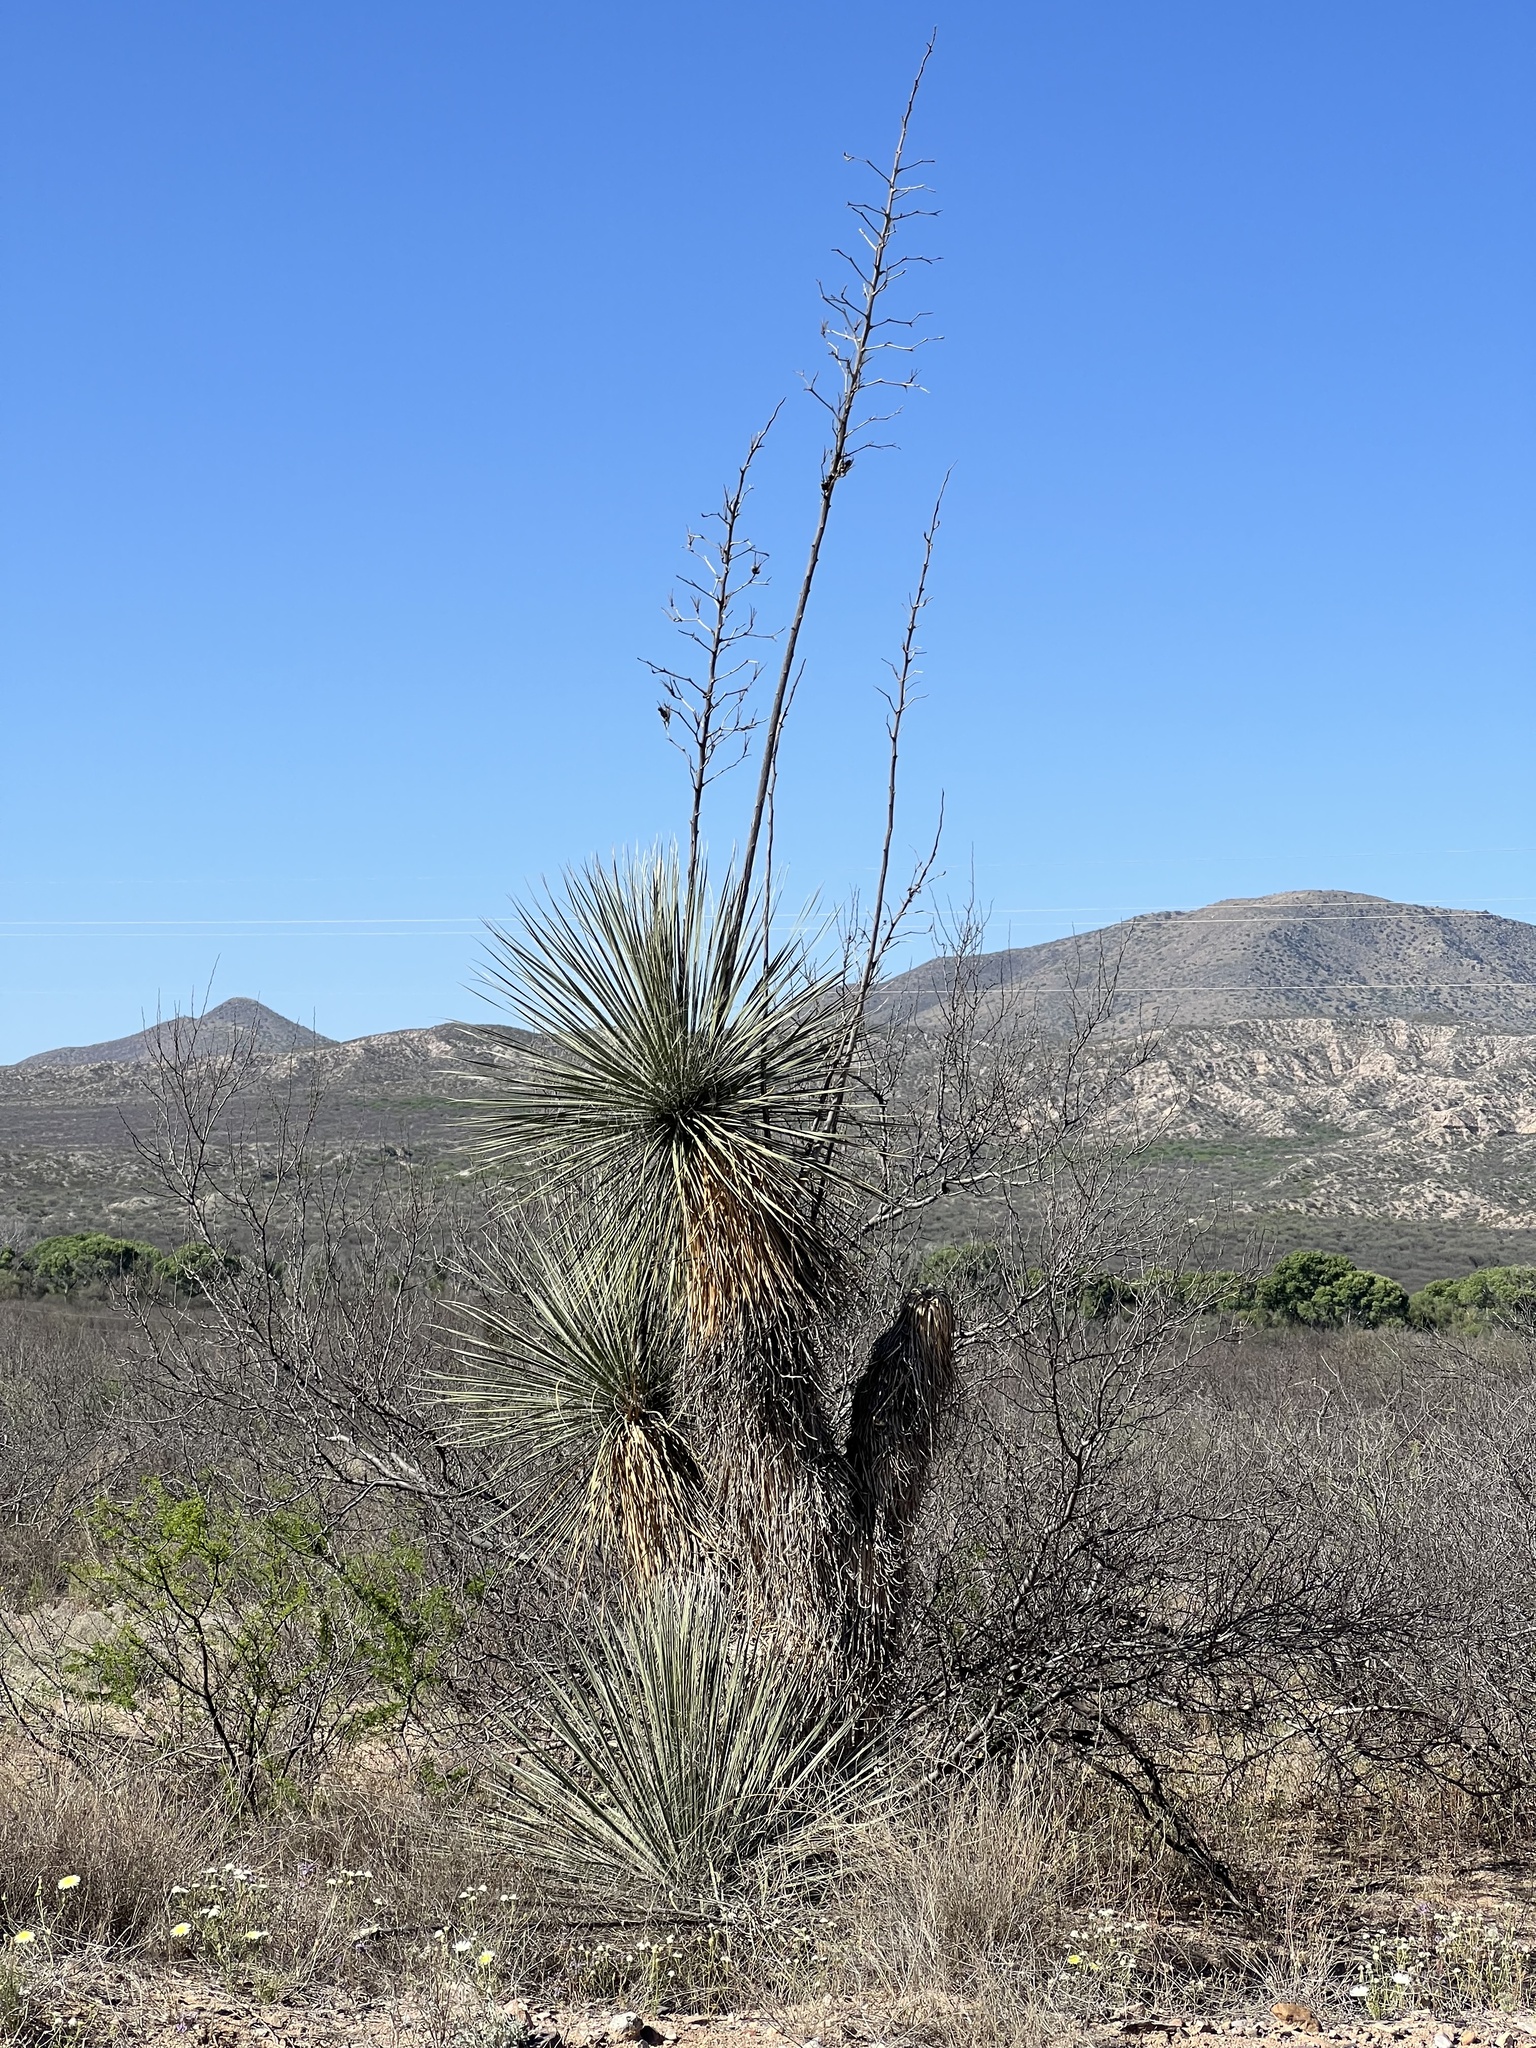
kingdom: Plantae
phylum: Tracheophyta
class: Liliopsida
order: Asparagales
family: Asparagaceae
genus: Yucca
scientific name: Yucca elata
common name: Palmella
